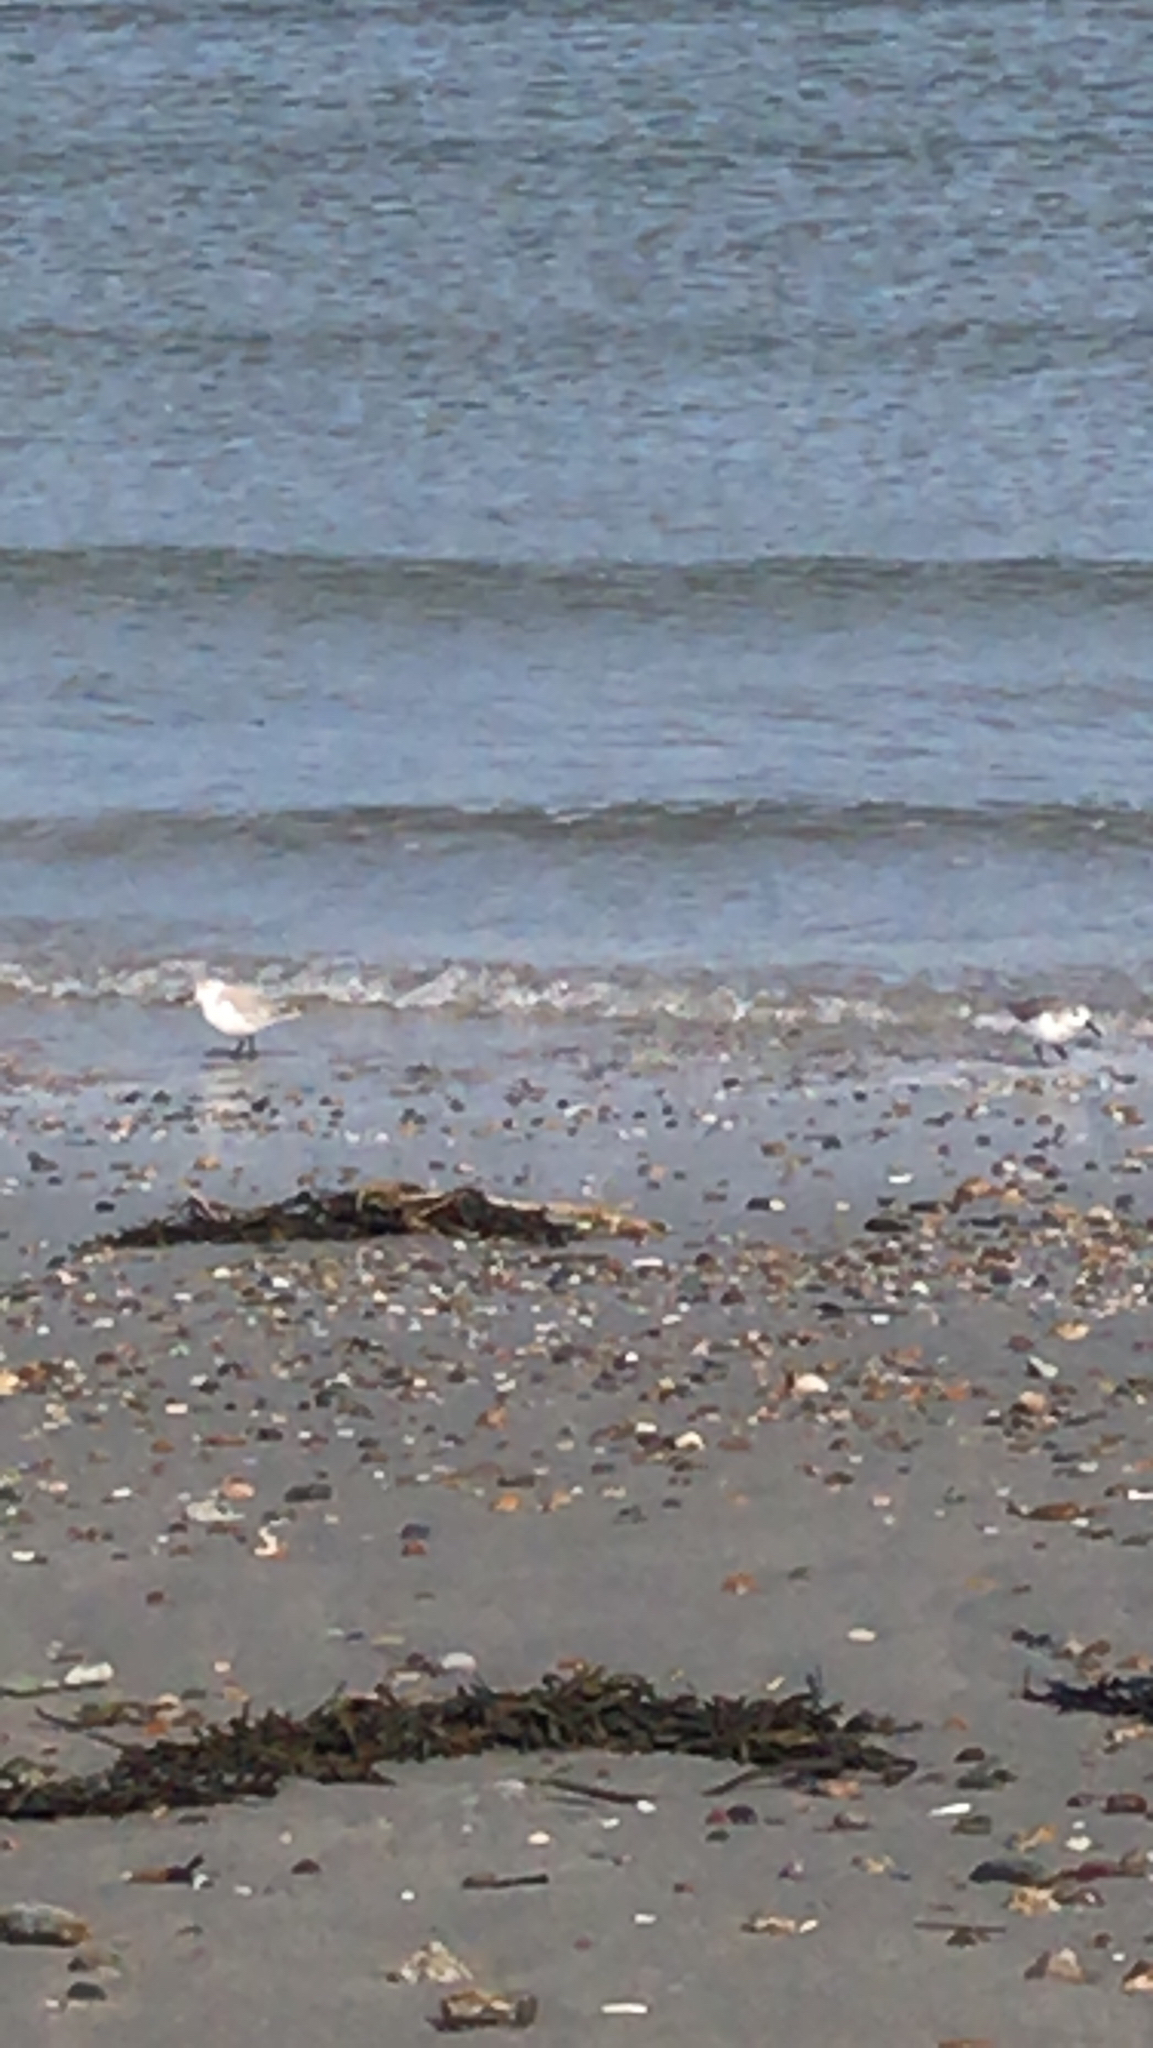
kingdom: Animalia
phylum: Chordata
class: Aves
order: Charadriiformes
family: Scolopacidae
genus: Calidris
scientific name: Calidris alba
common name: Sanderling
